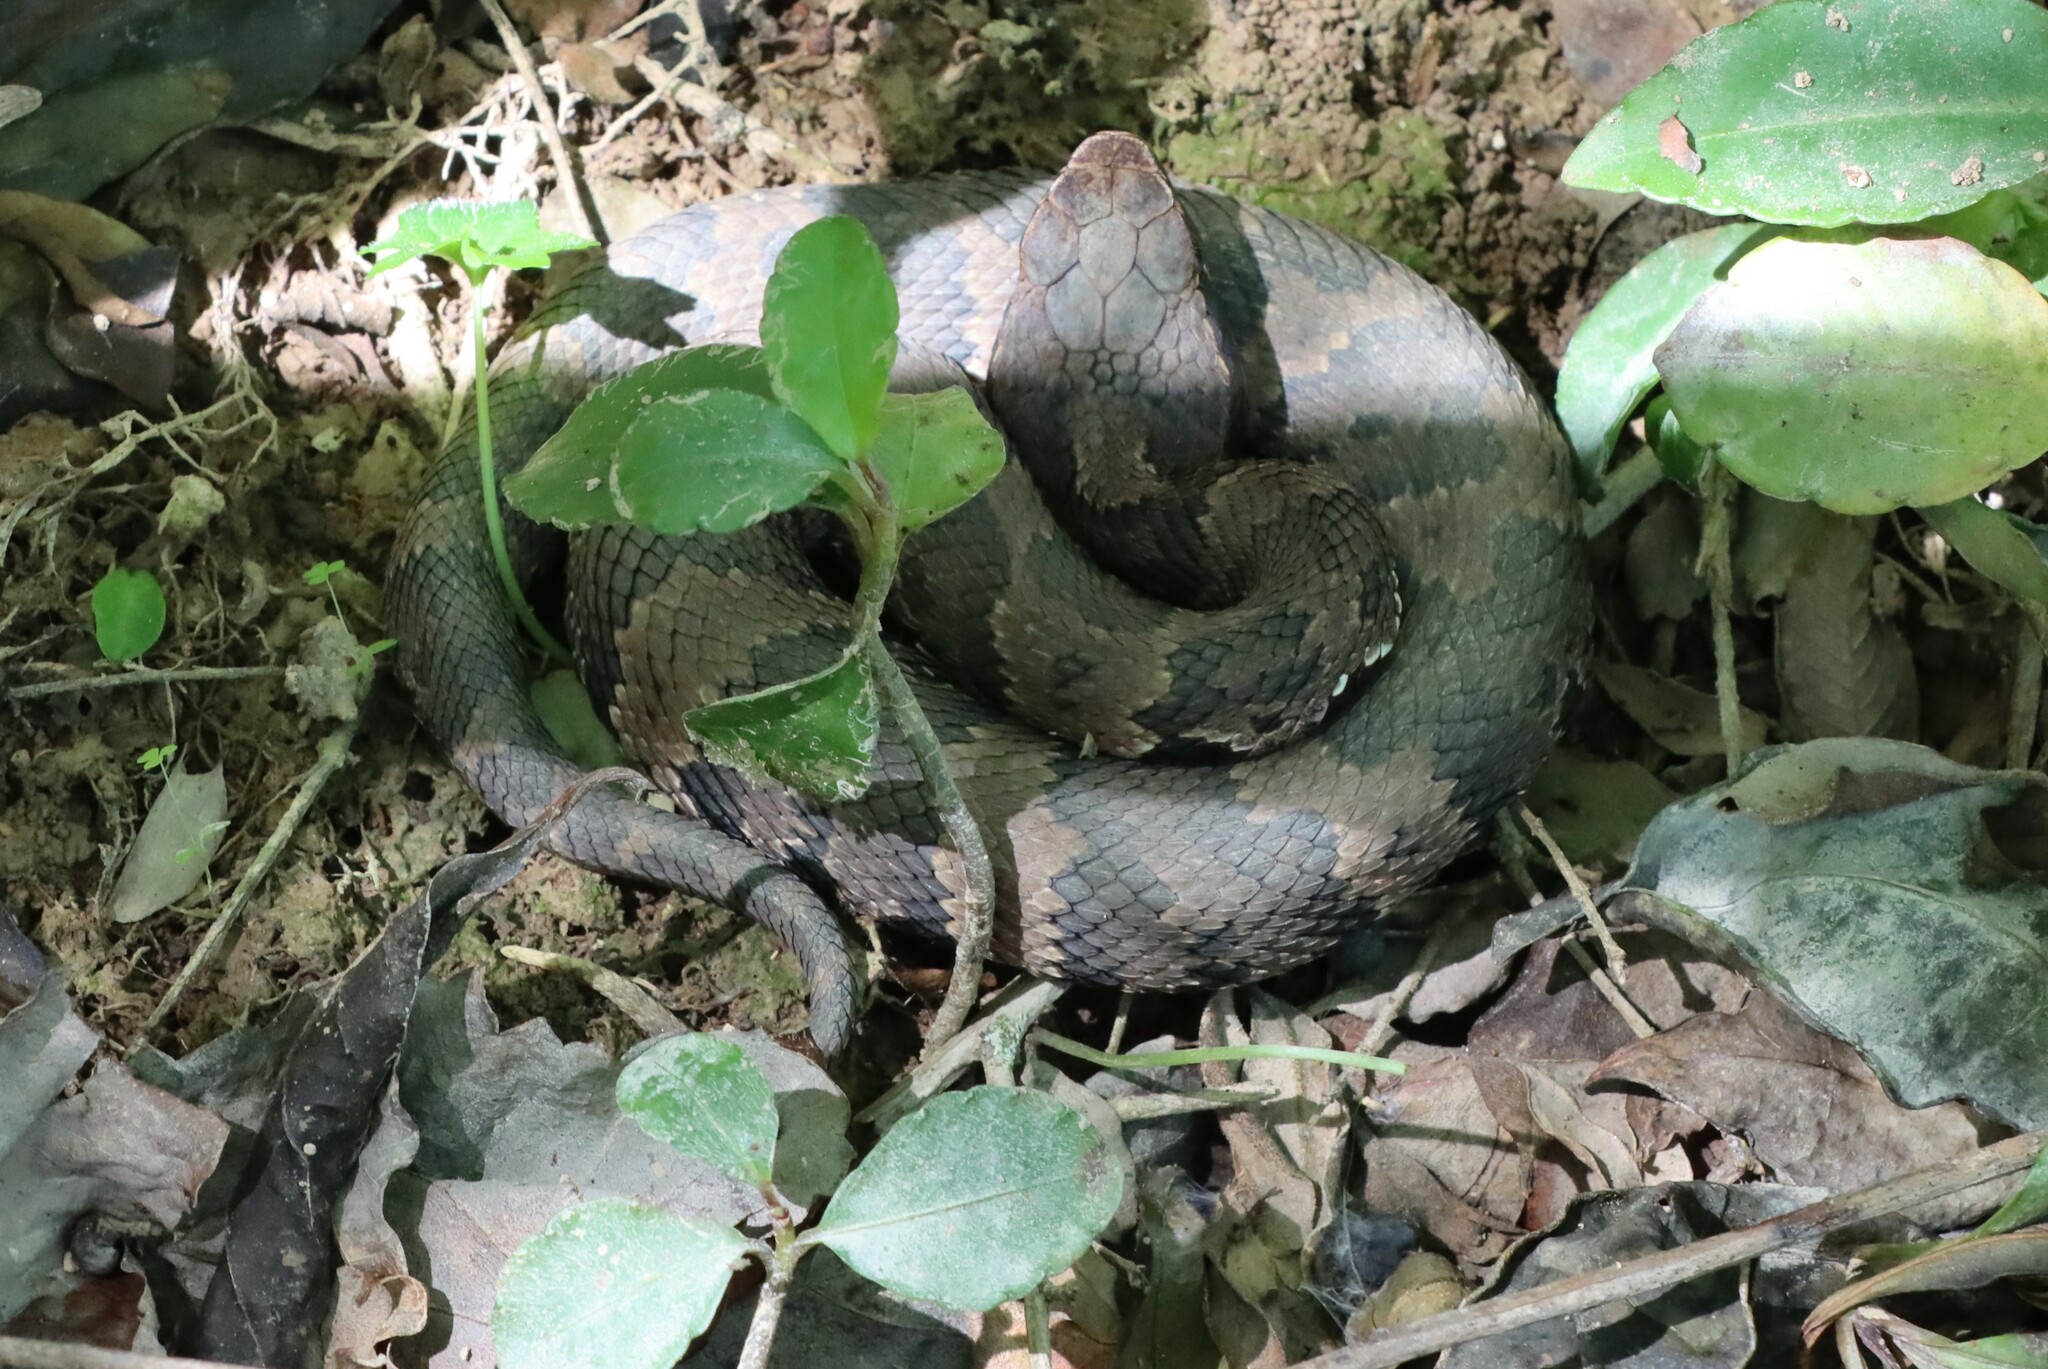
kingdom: Animalia
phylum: Chordata
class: Squamata
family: Viperidae
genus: Agkistrodon
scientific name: Agkistrodon piscivorus
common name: Cottonmouth
